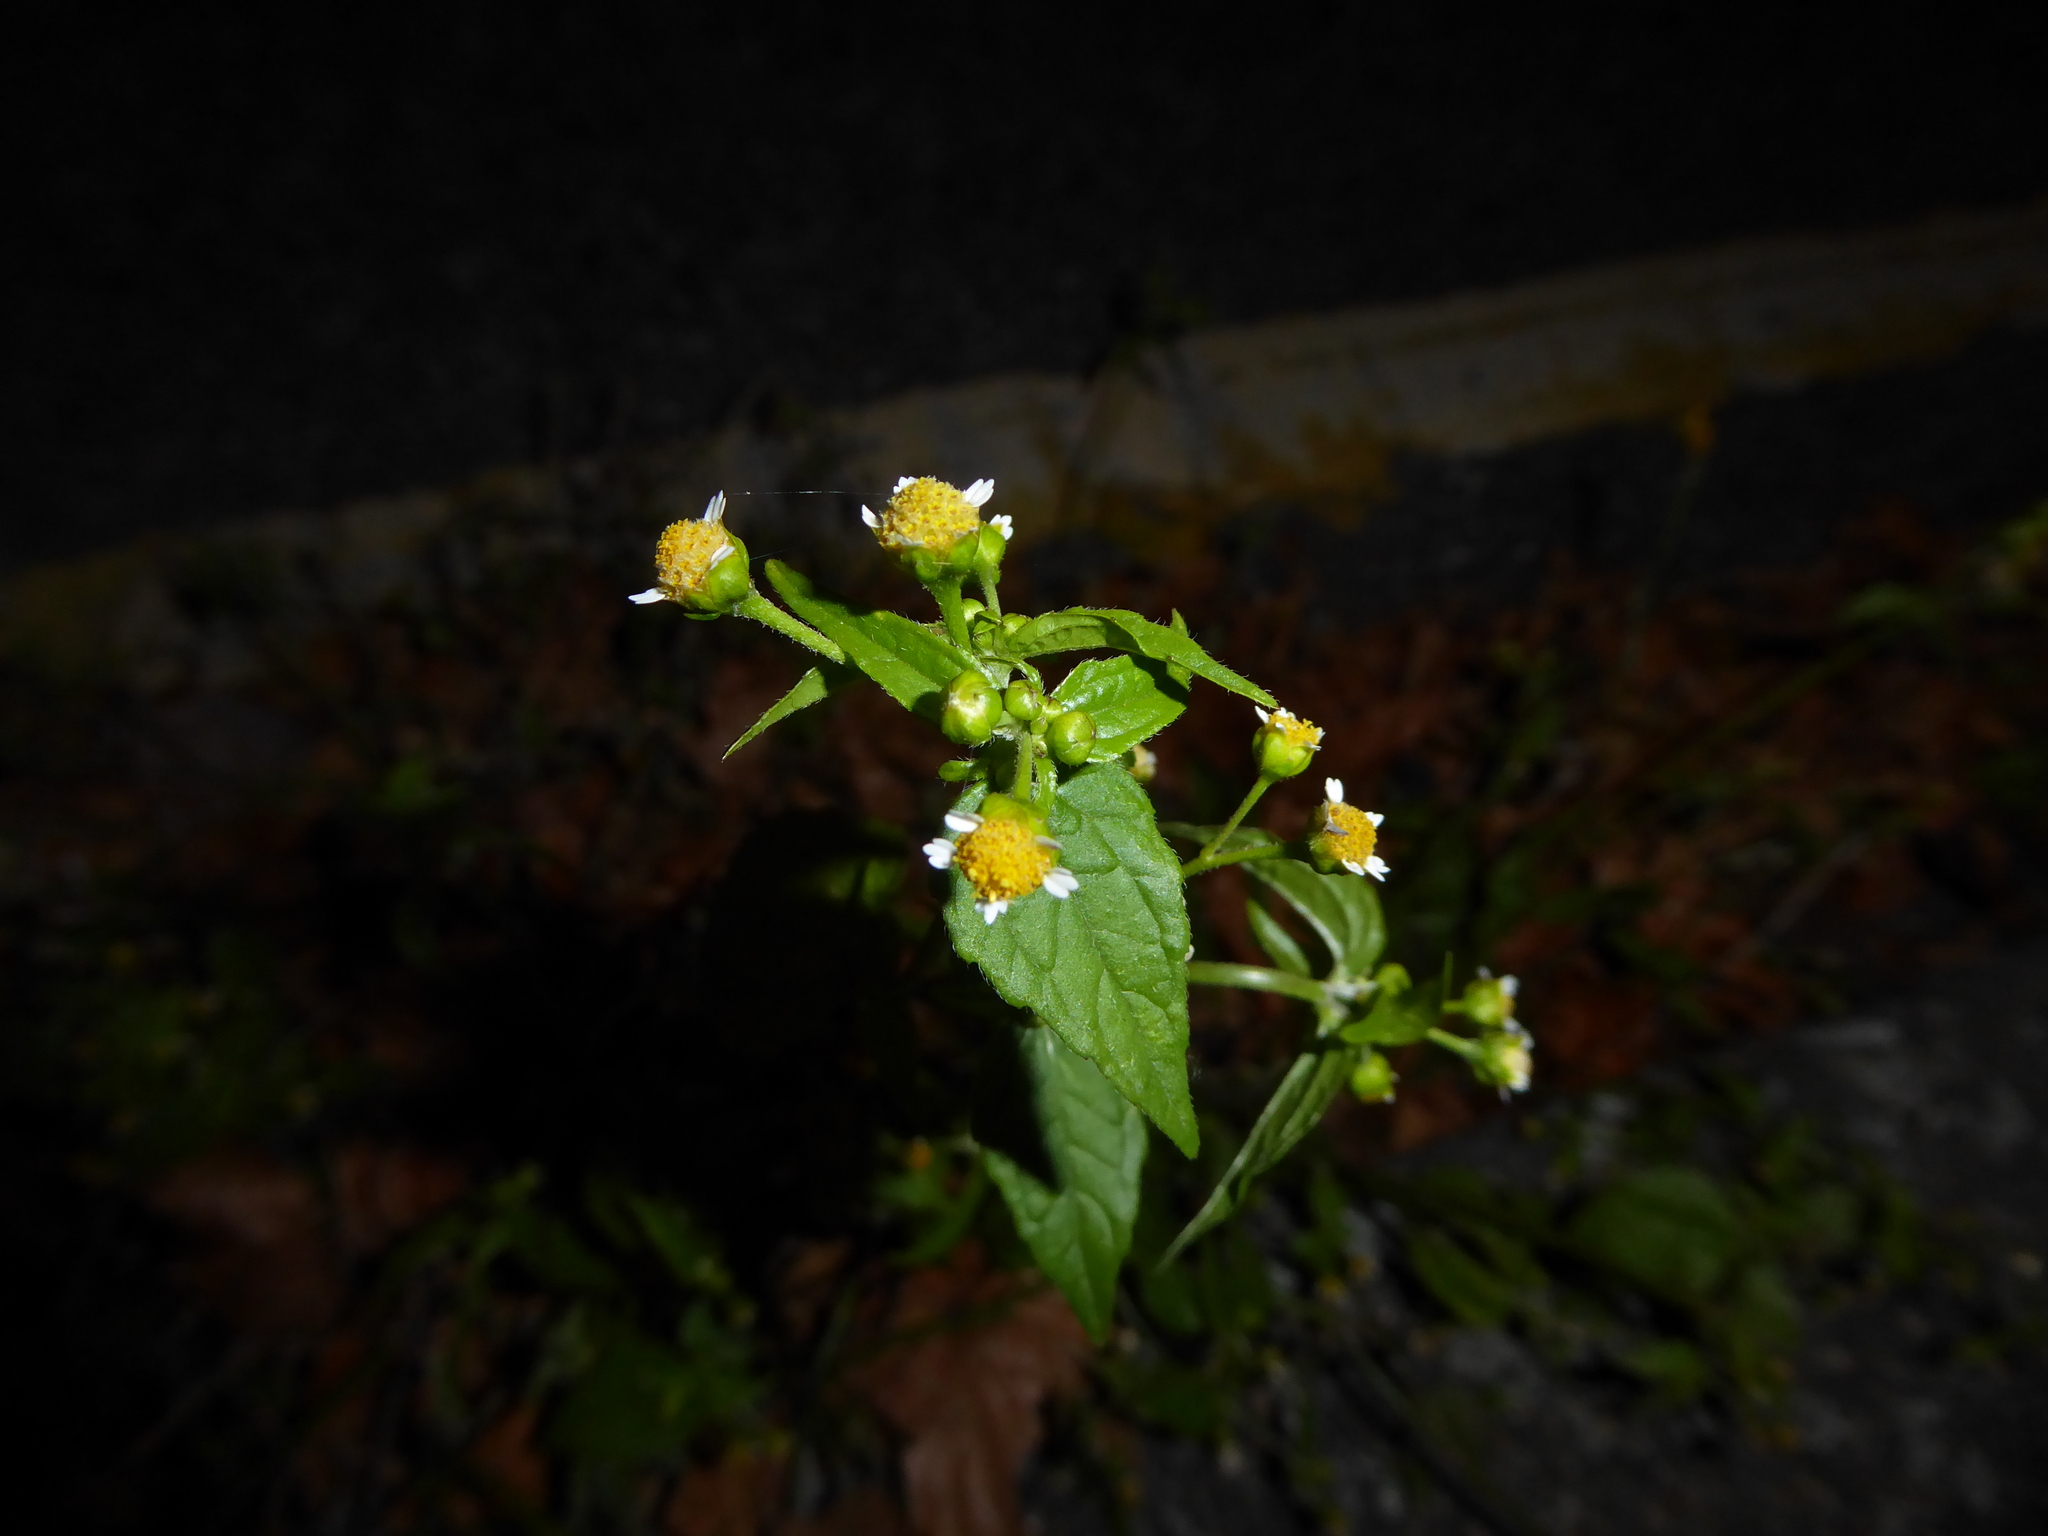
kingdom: Plantae
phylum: Tracheophyta
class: Magnoliopsida
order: Asterales
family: Asteraceae
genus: Galinsoga
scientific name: Galinsoga parviflora
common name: Gallant soldier
